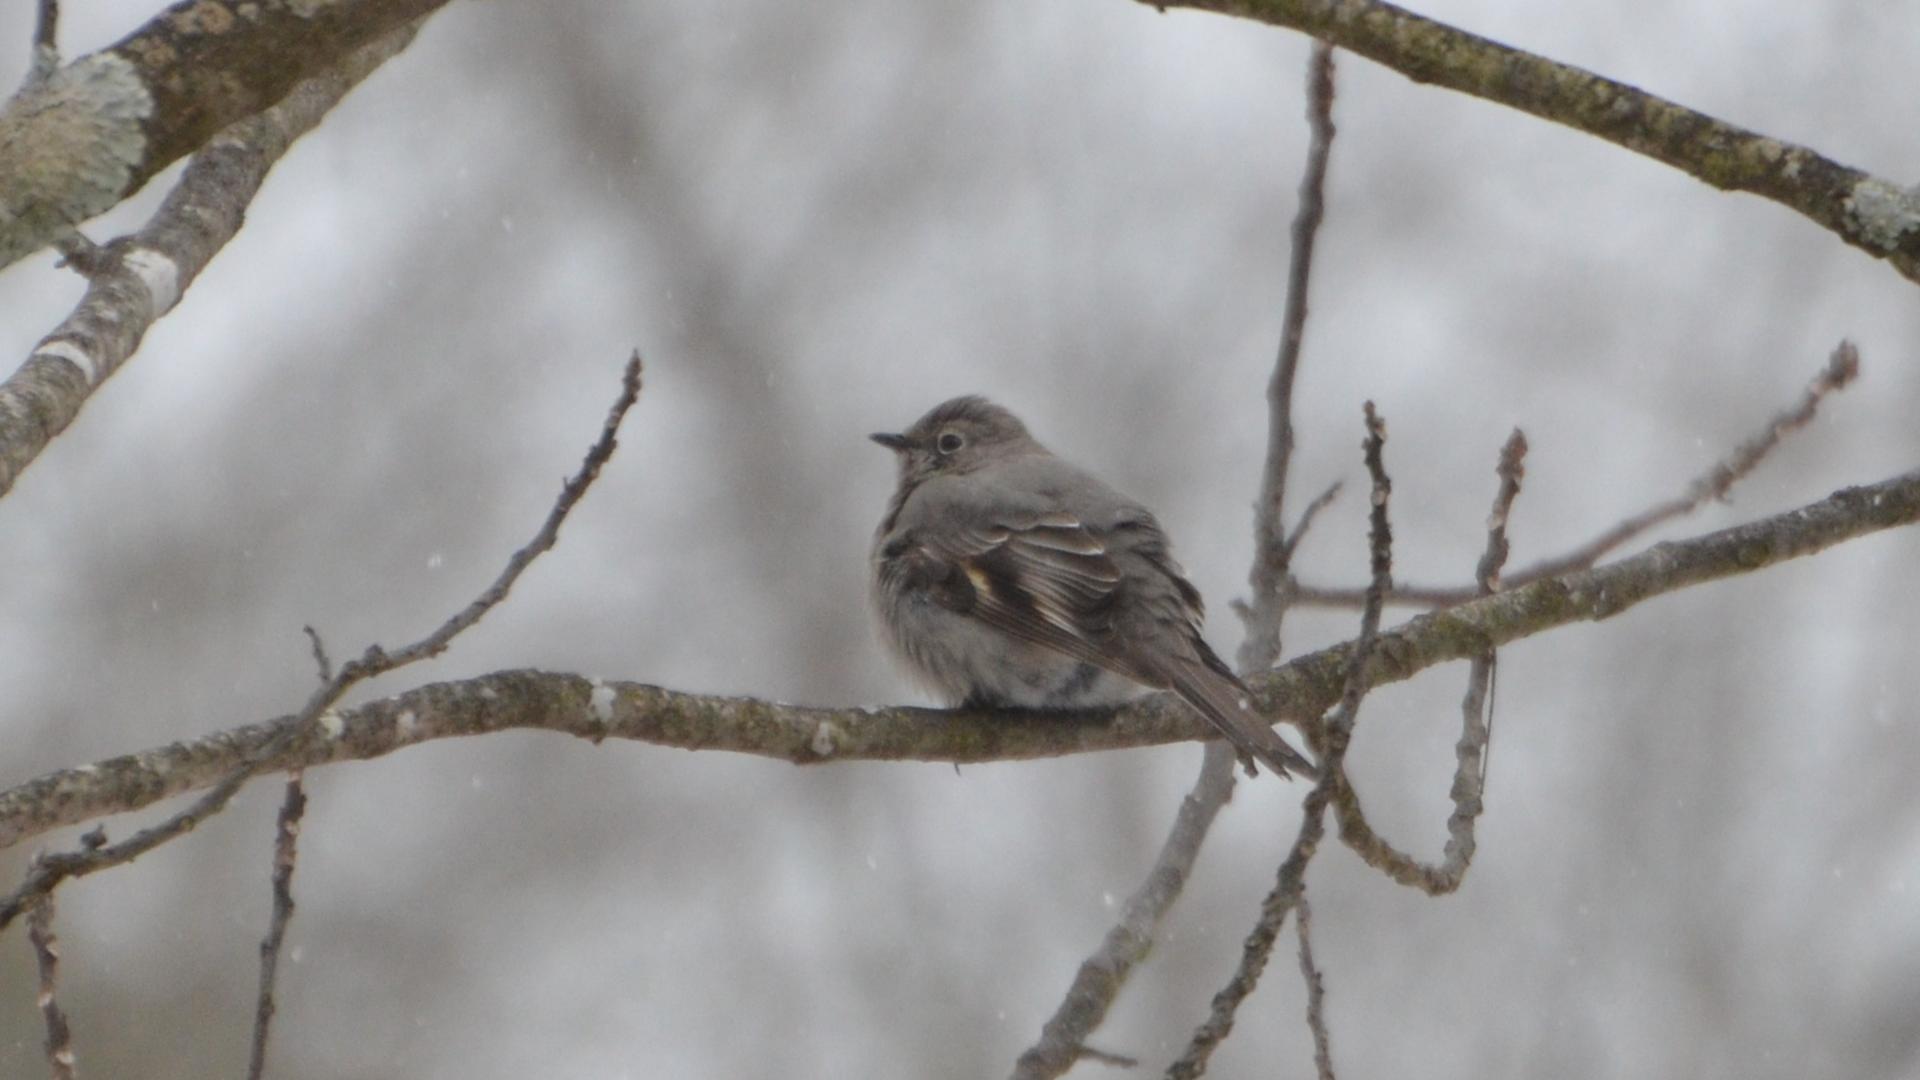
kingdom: Animalia
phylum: Chordata
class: Aves
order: Passeriformes
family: Turdidae
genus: Myadestes
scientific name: Myadestes townsendi
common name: Townsend's solitaire
